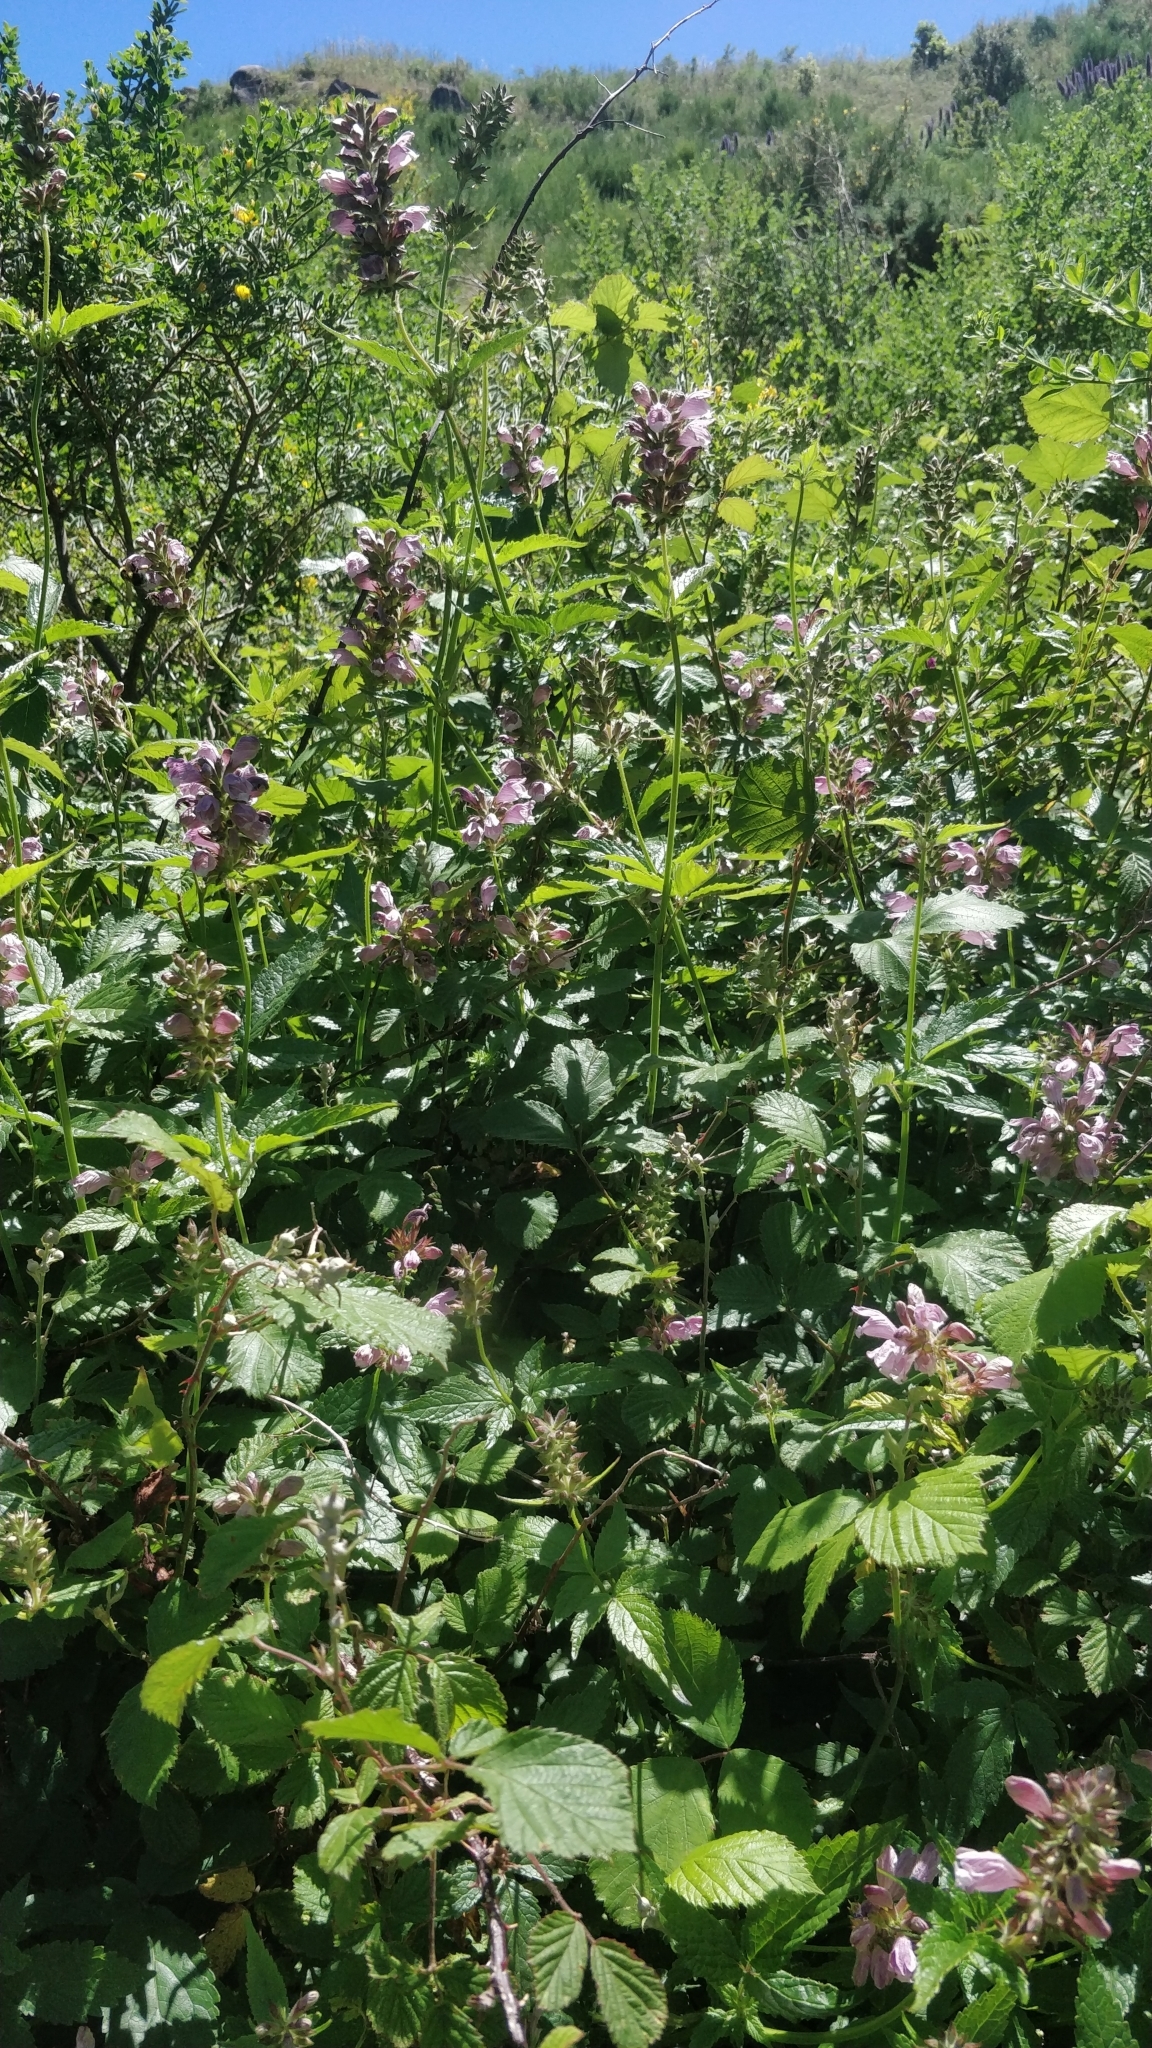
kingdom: Plantae
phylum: Tracheophyta
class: Magnoliopsida
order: Lamiales
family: Lamiaceae
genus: Cedronella
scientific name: Cedronella canariensis
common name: Canary islands balm
